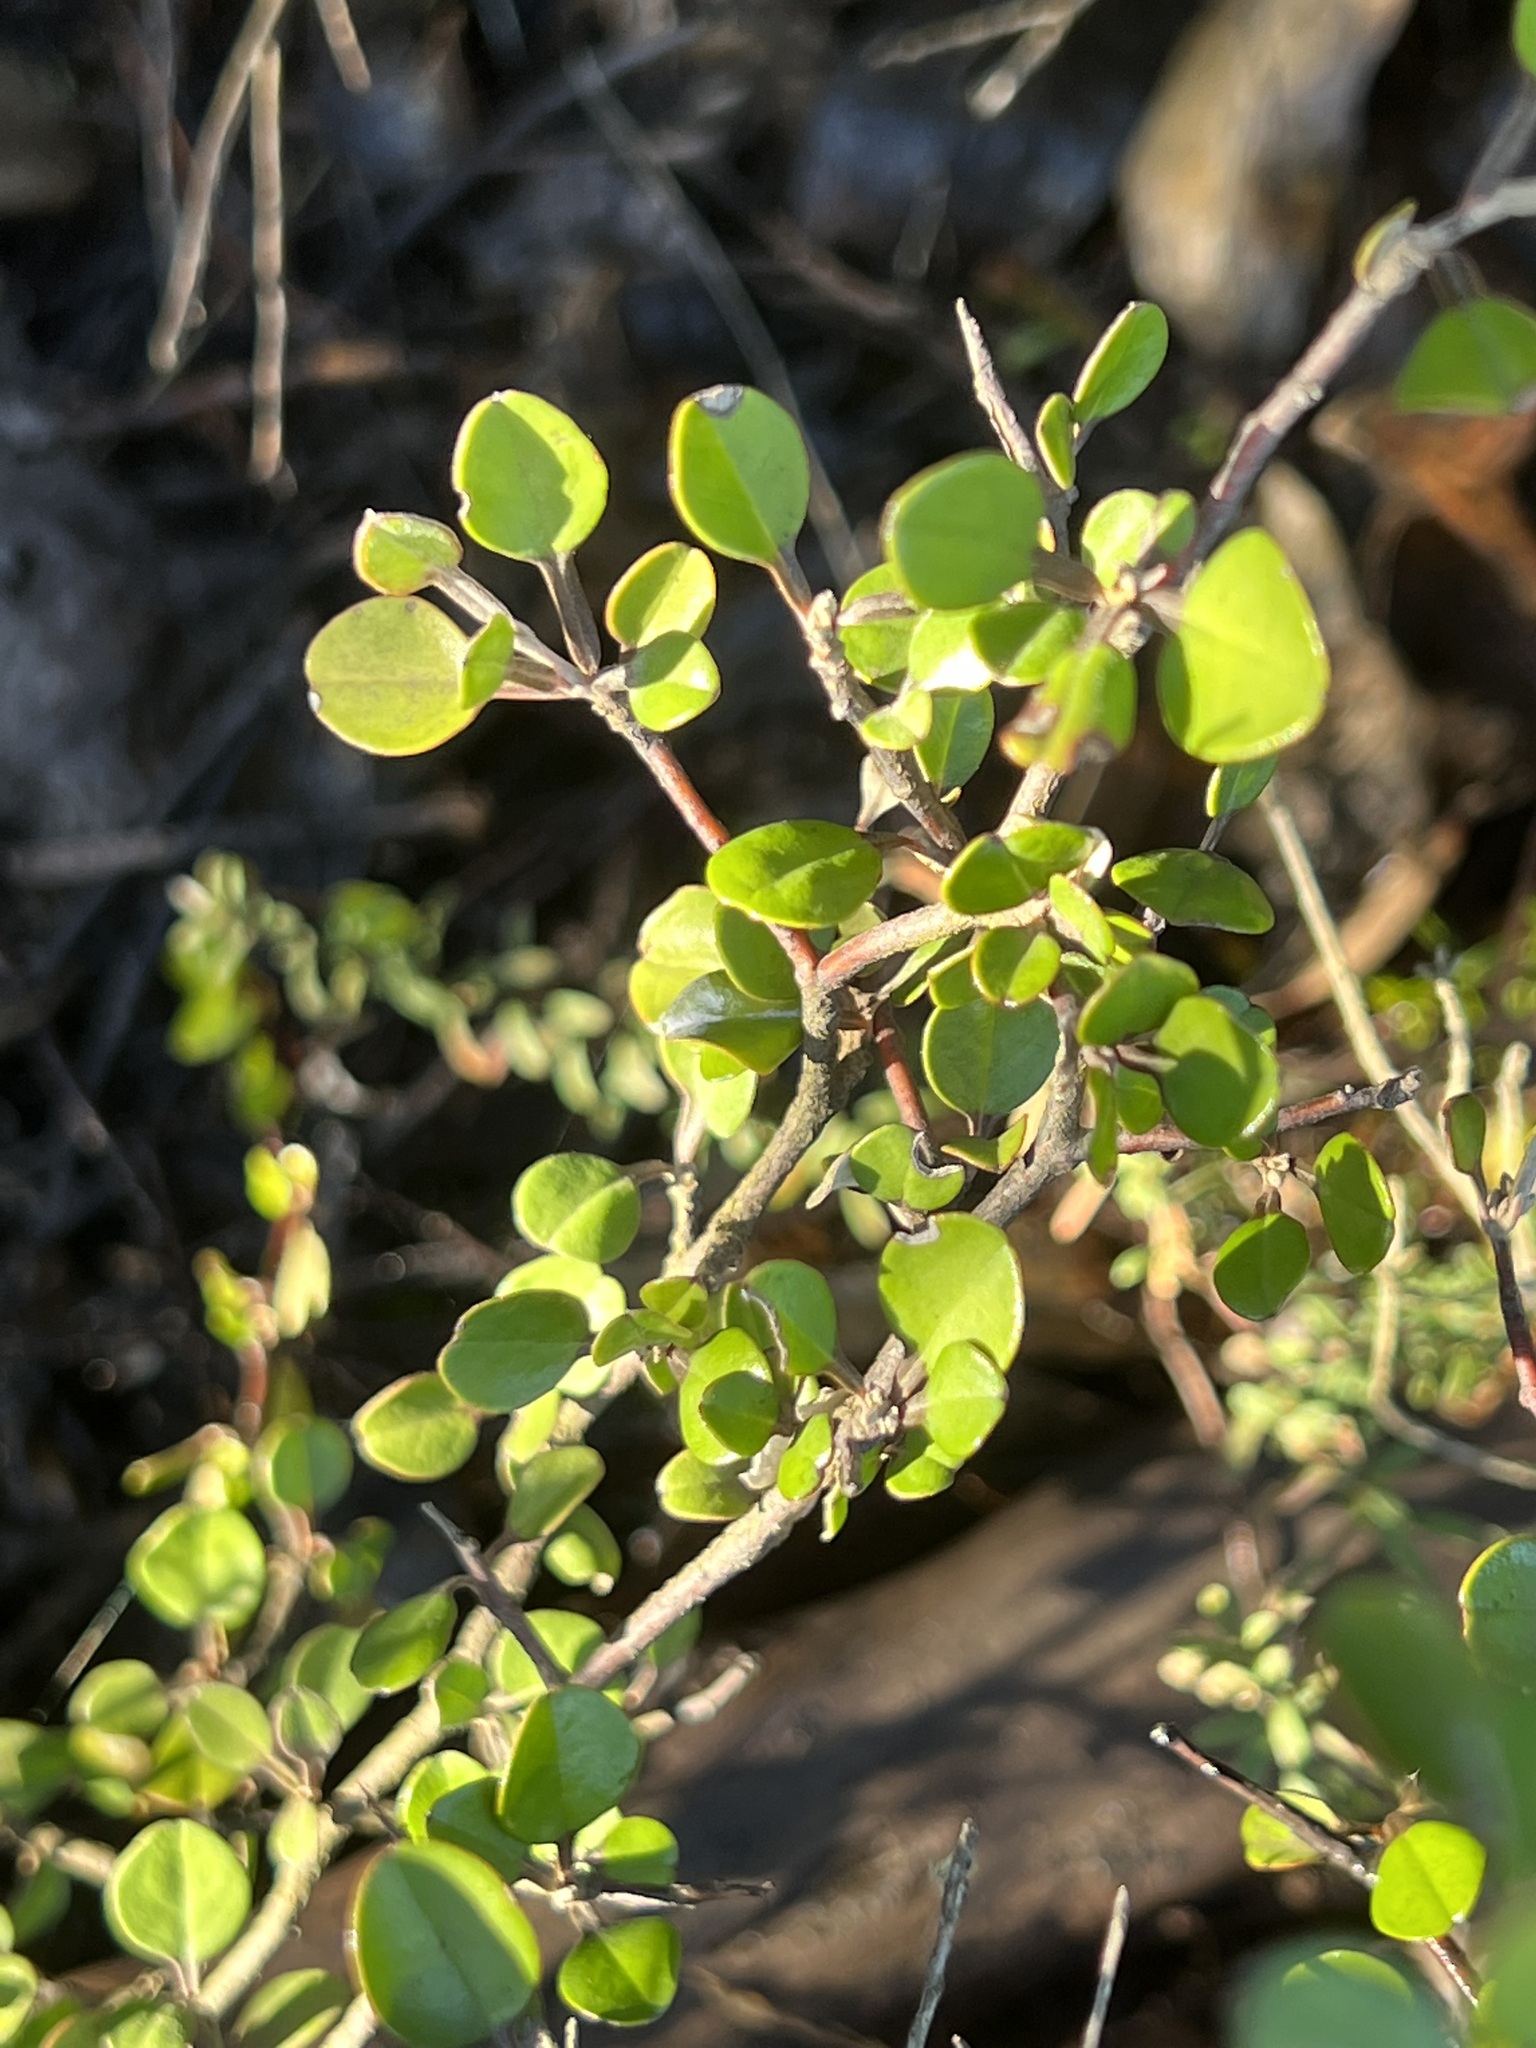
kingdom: Plantae
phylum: Tracheophyta
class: Magnoliopsida
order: Asterales
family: Argophyllaceae
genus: Corokia
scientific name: Corokia cotoneaster
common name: Wire nettingbush
